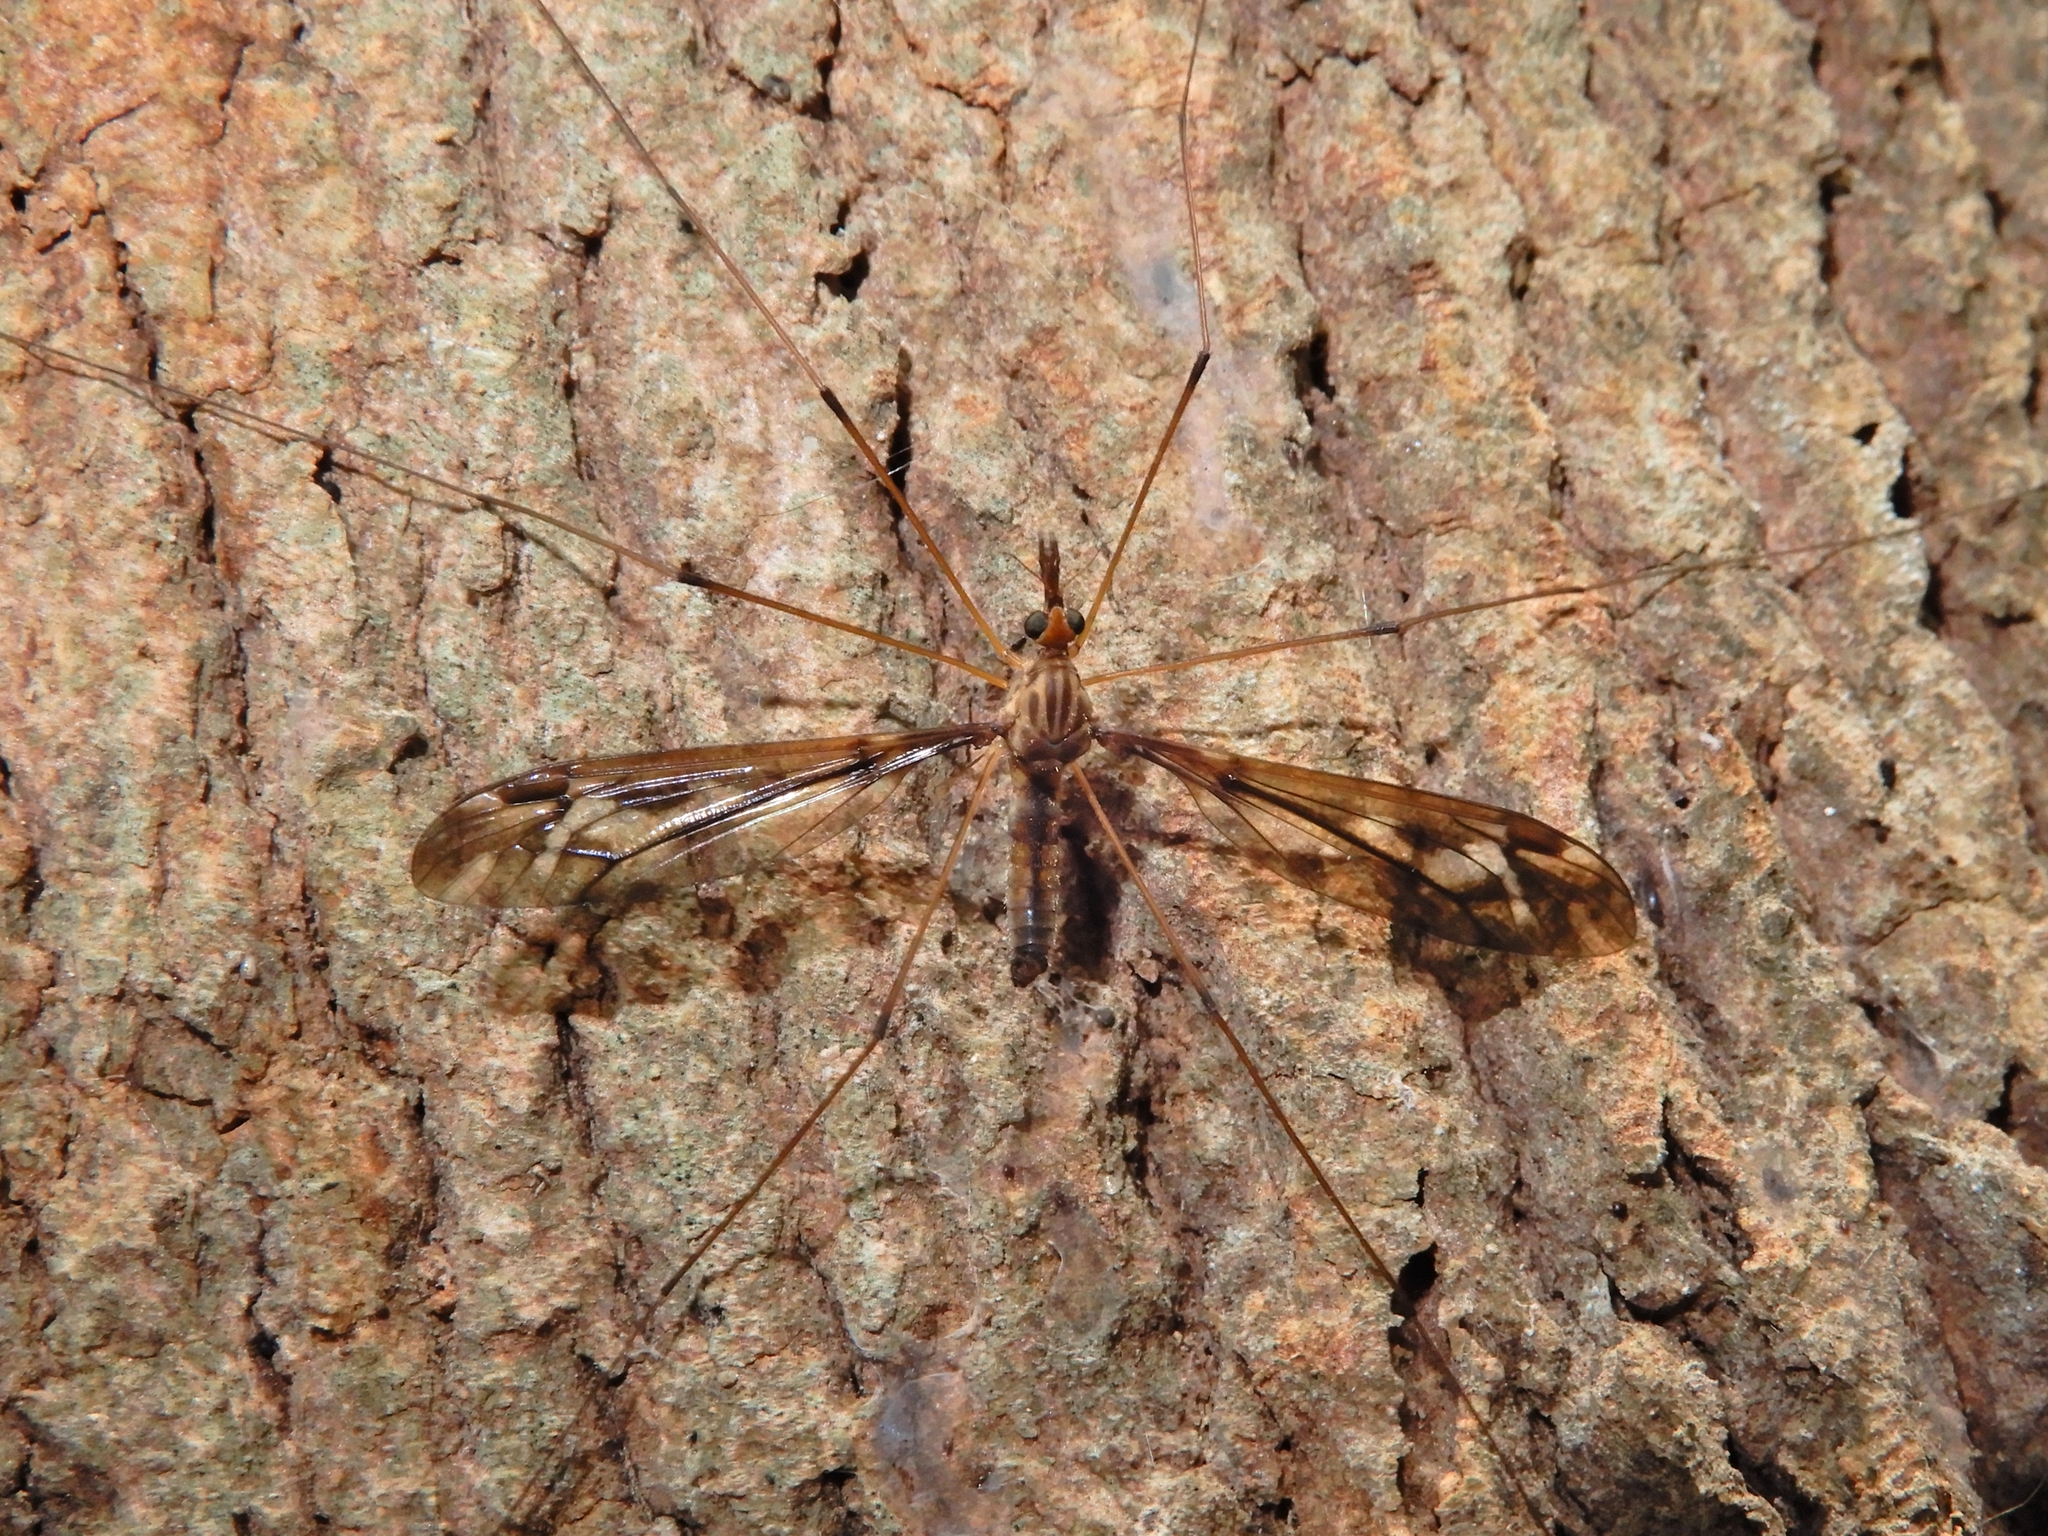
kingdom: Animalia
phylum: Arthropoda
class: Insecta
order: Diptera
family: Tipulidae
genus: Leptotarsus
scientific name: Leptotarsus huttoni
